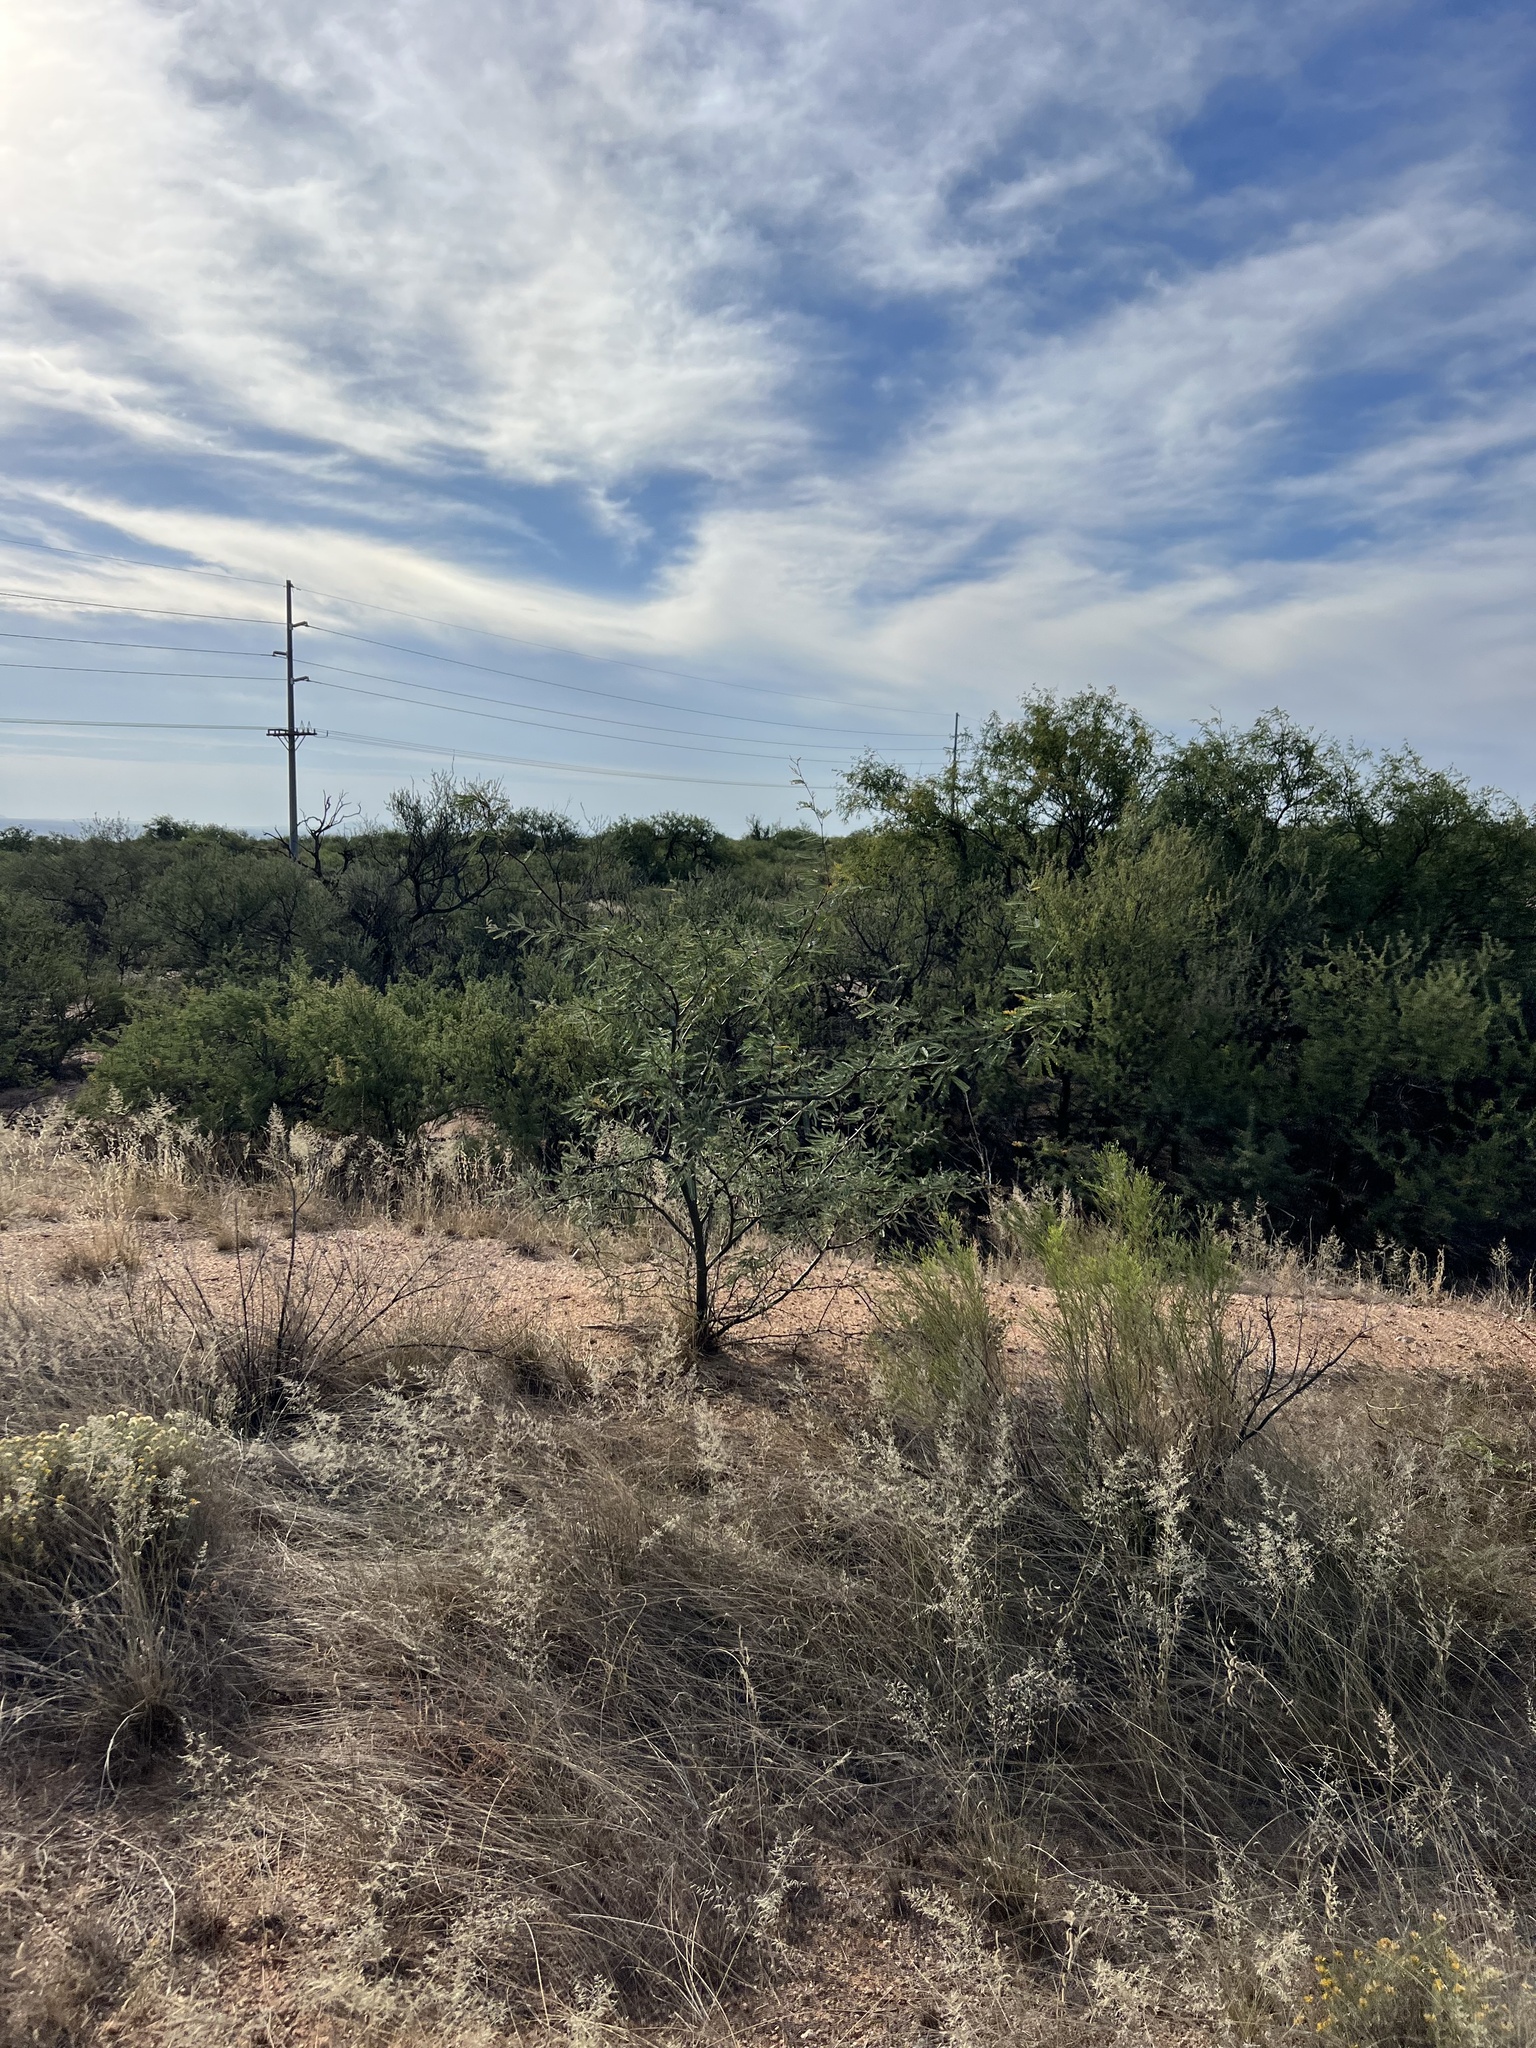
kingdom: Plantae
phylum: Tracheophyta
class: Magnoliopsida
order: Fabales
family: Fabaceae
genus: Prosopis
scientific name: Prosopis velutina
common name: Velvet mesquite
